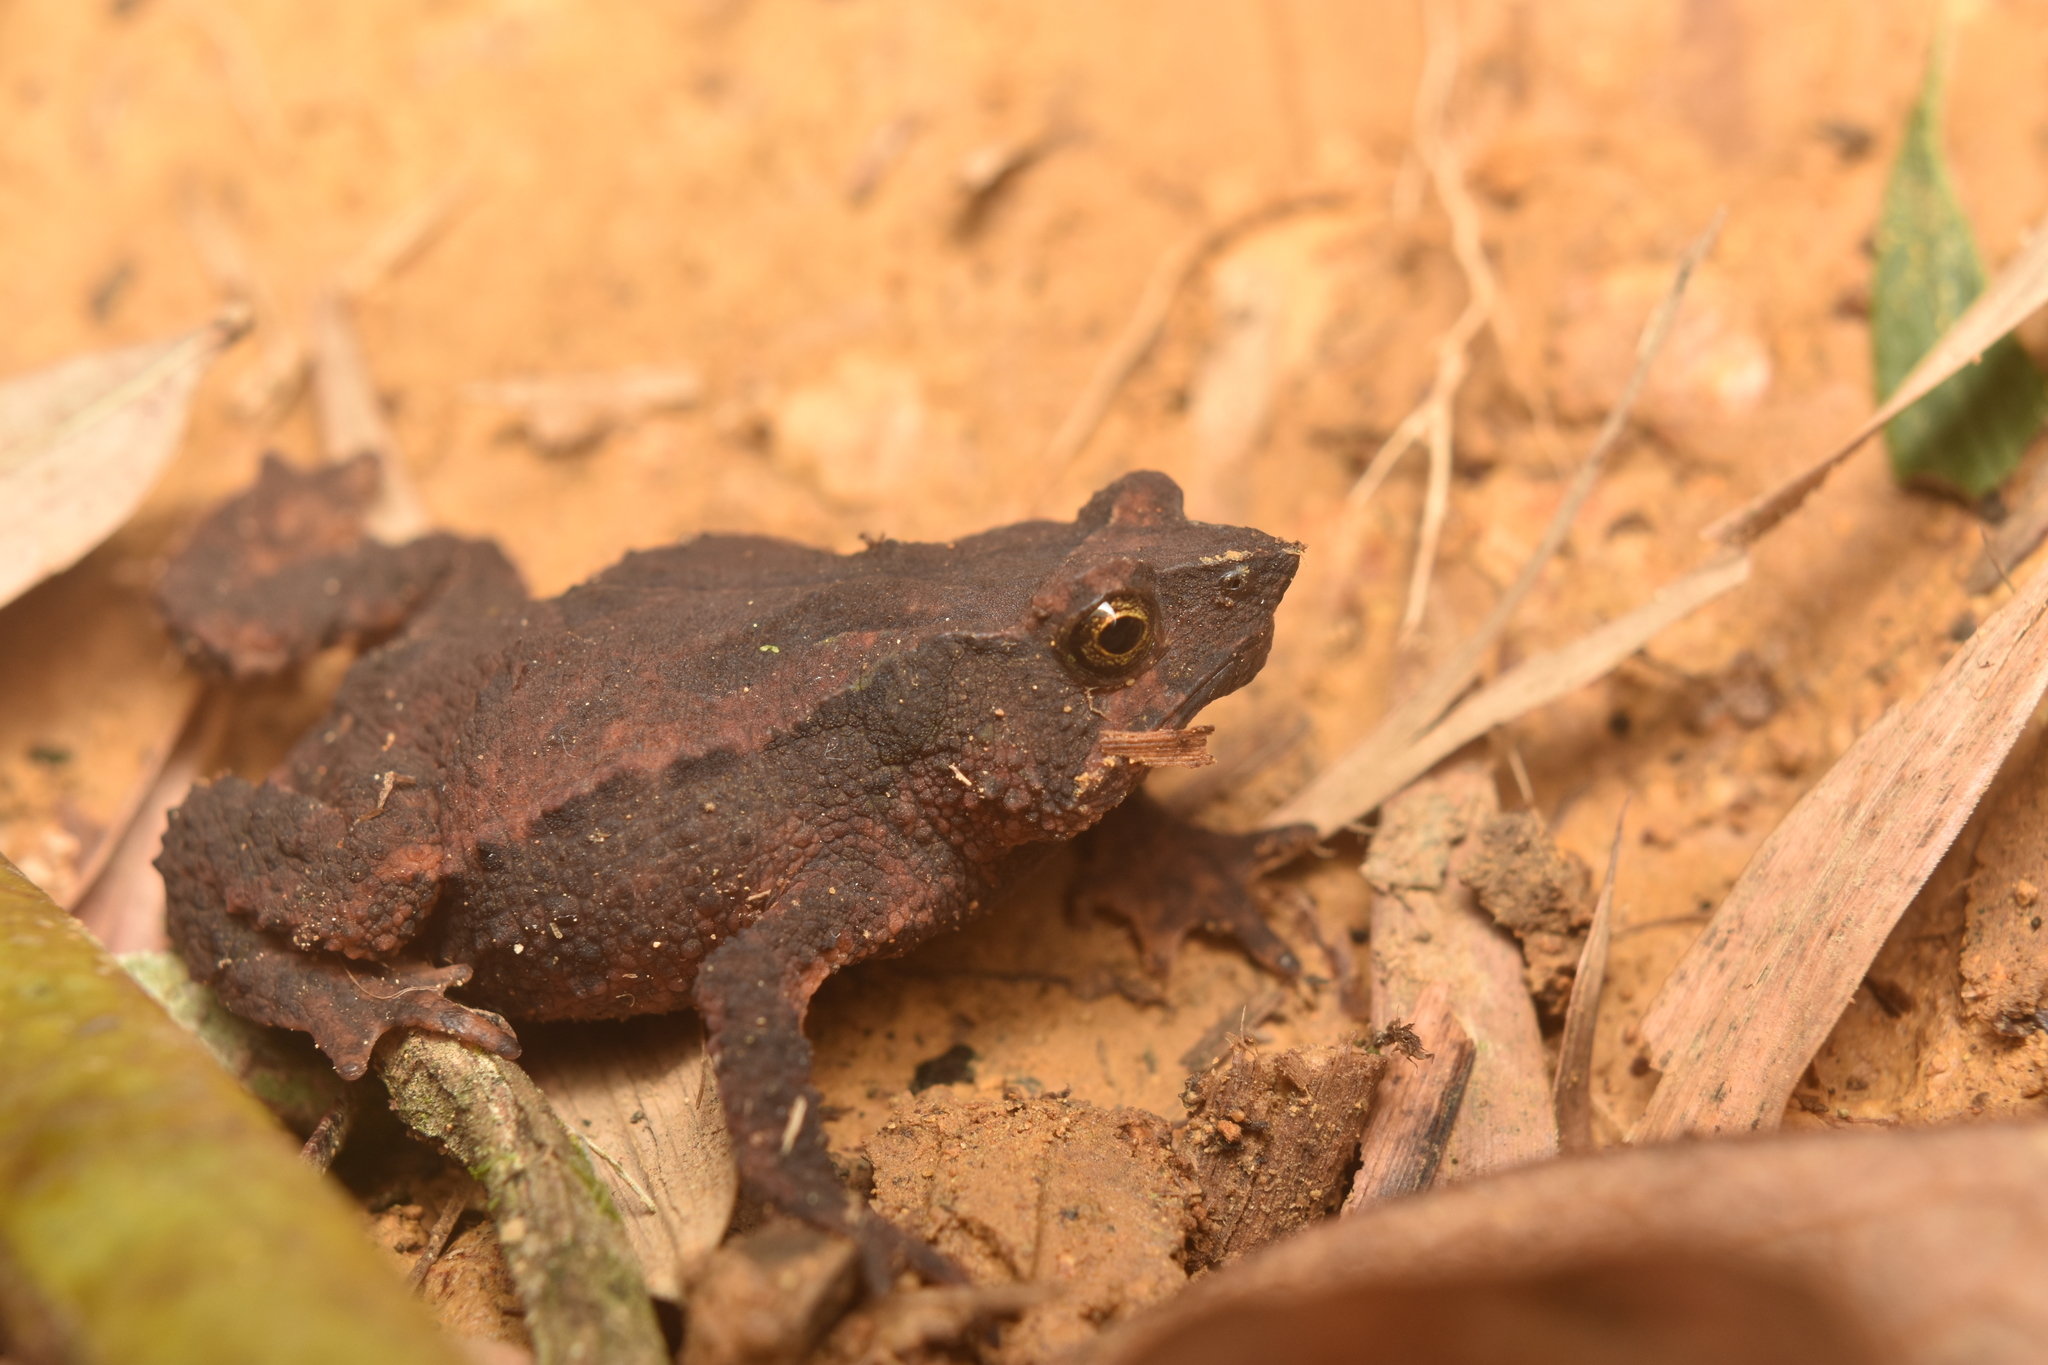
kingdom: Animalia
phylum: Chordata
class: Amphibia
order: Anura
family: Bufonidae
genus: Rhinella
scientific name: Rhinella ruizi
